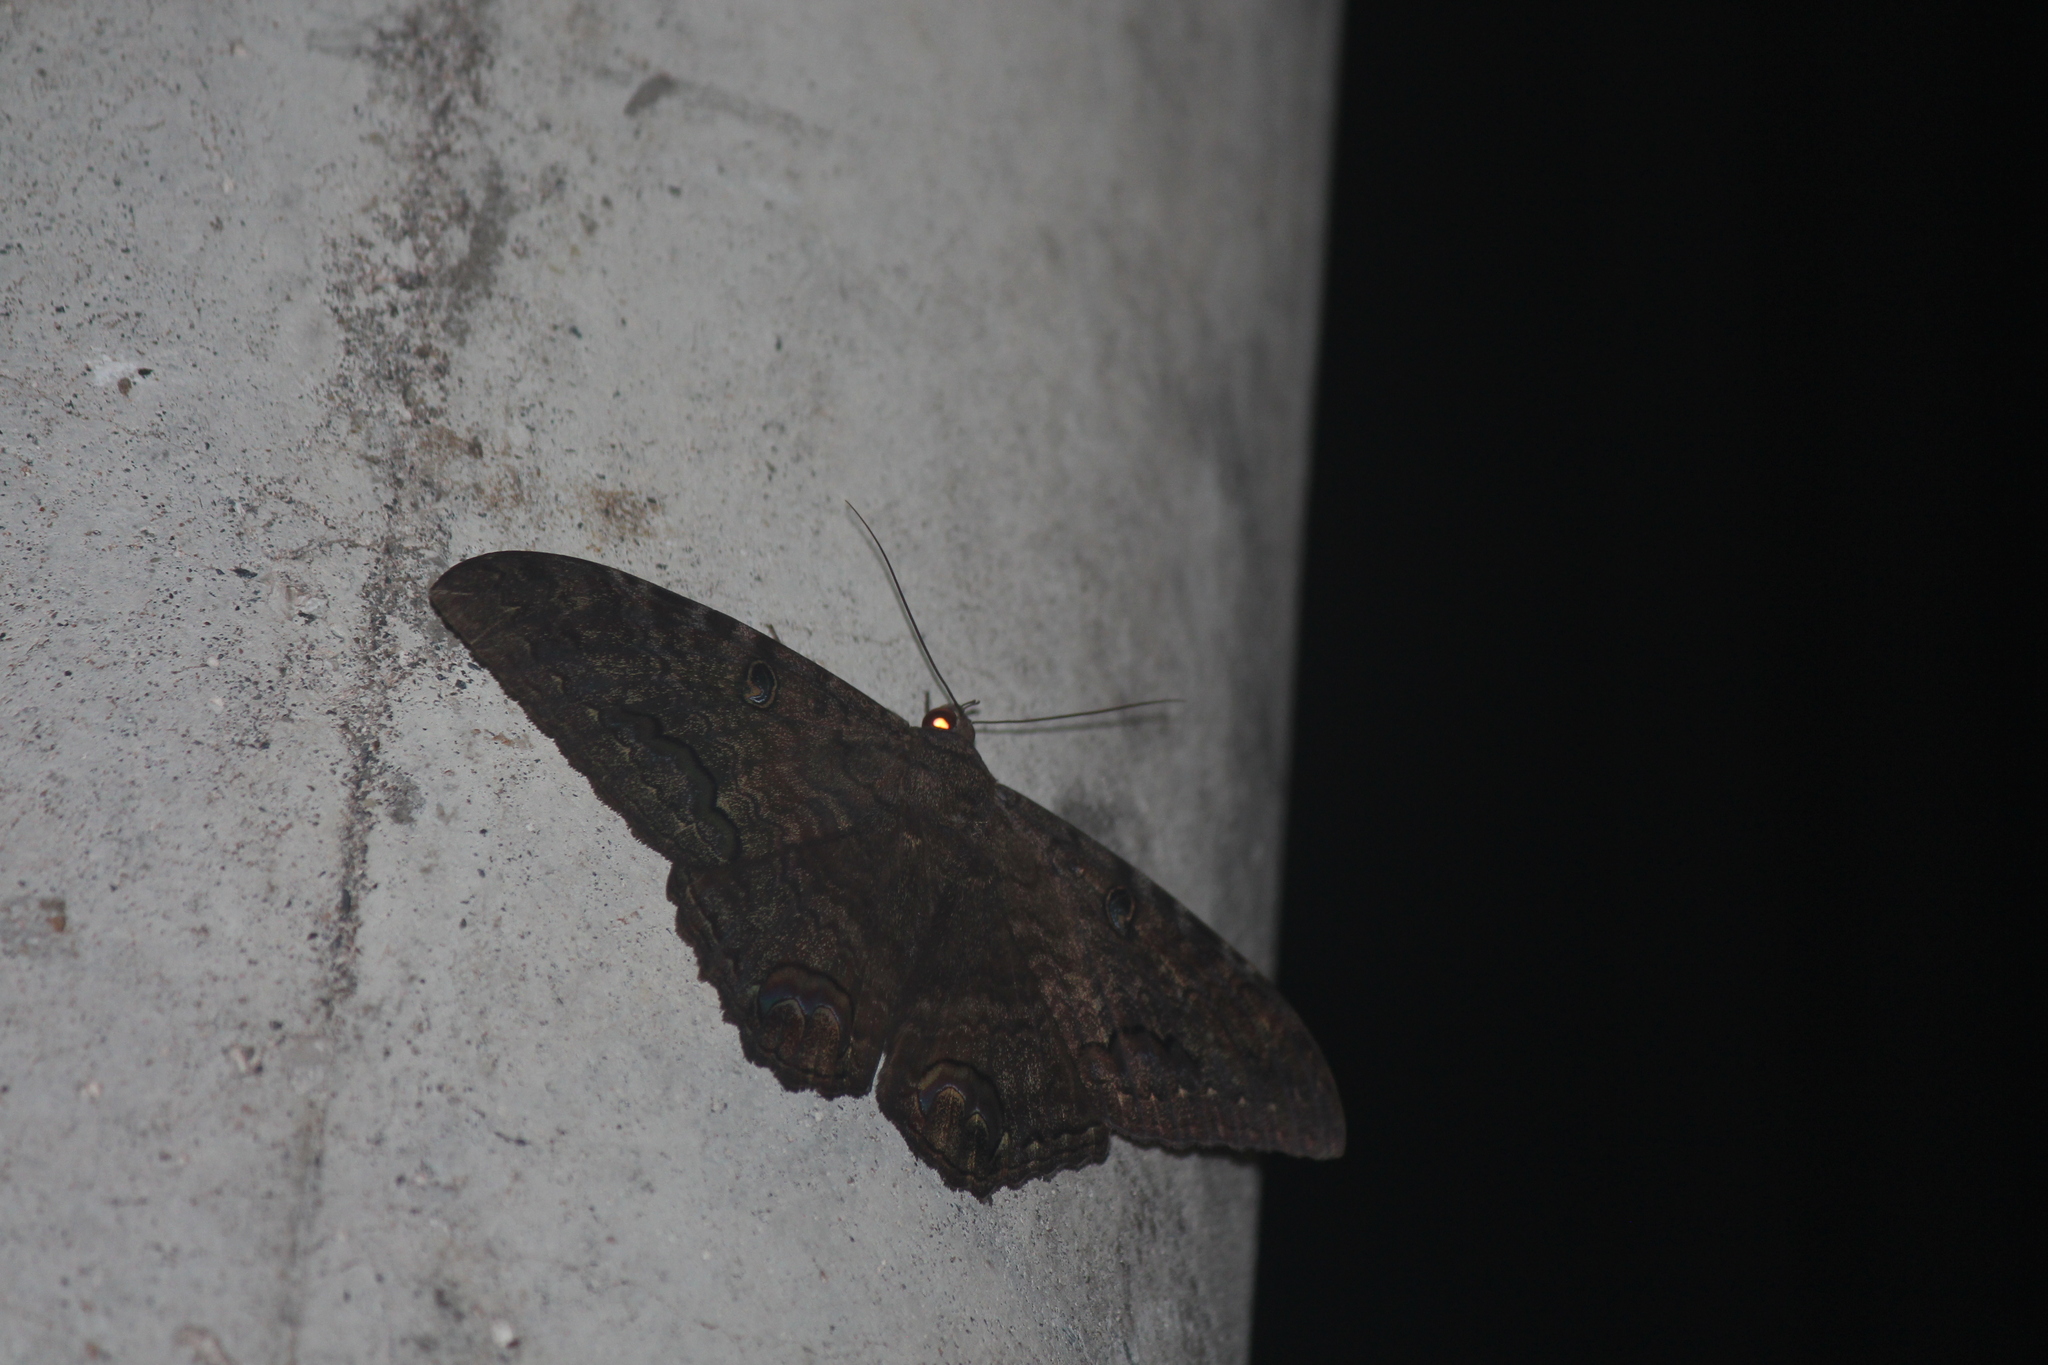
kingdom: Animalia
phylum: Arthropoda
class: Insecta
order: Lepidoptera
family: Erebidae
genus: Ascalapha
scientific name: Ascalapha odorata
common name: Black witch
